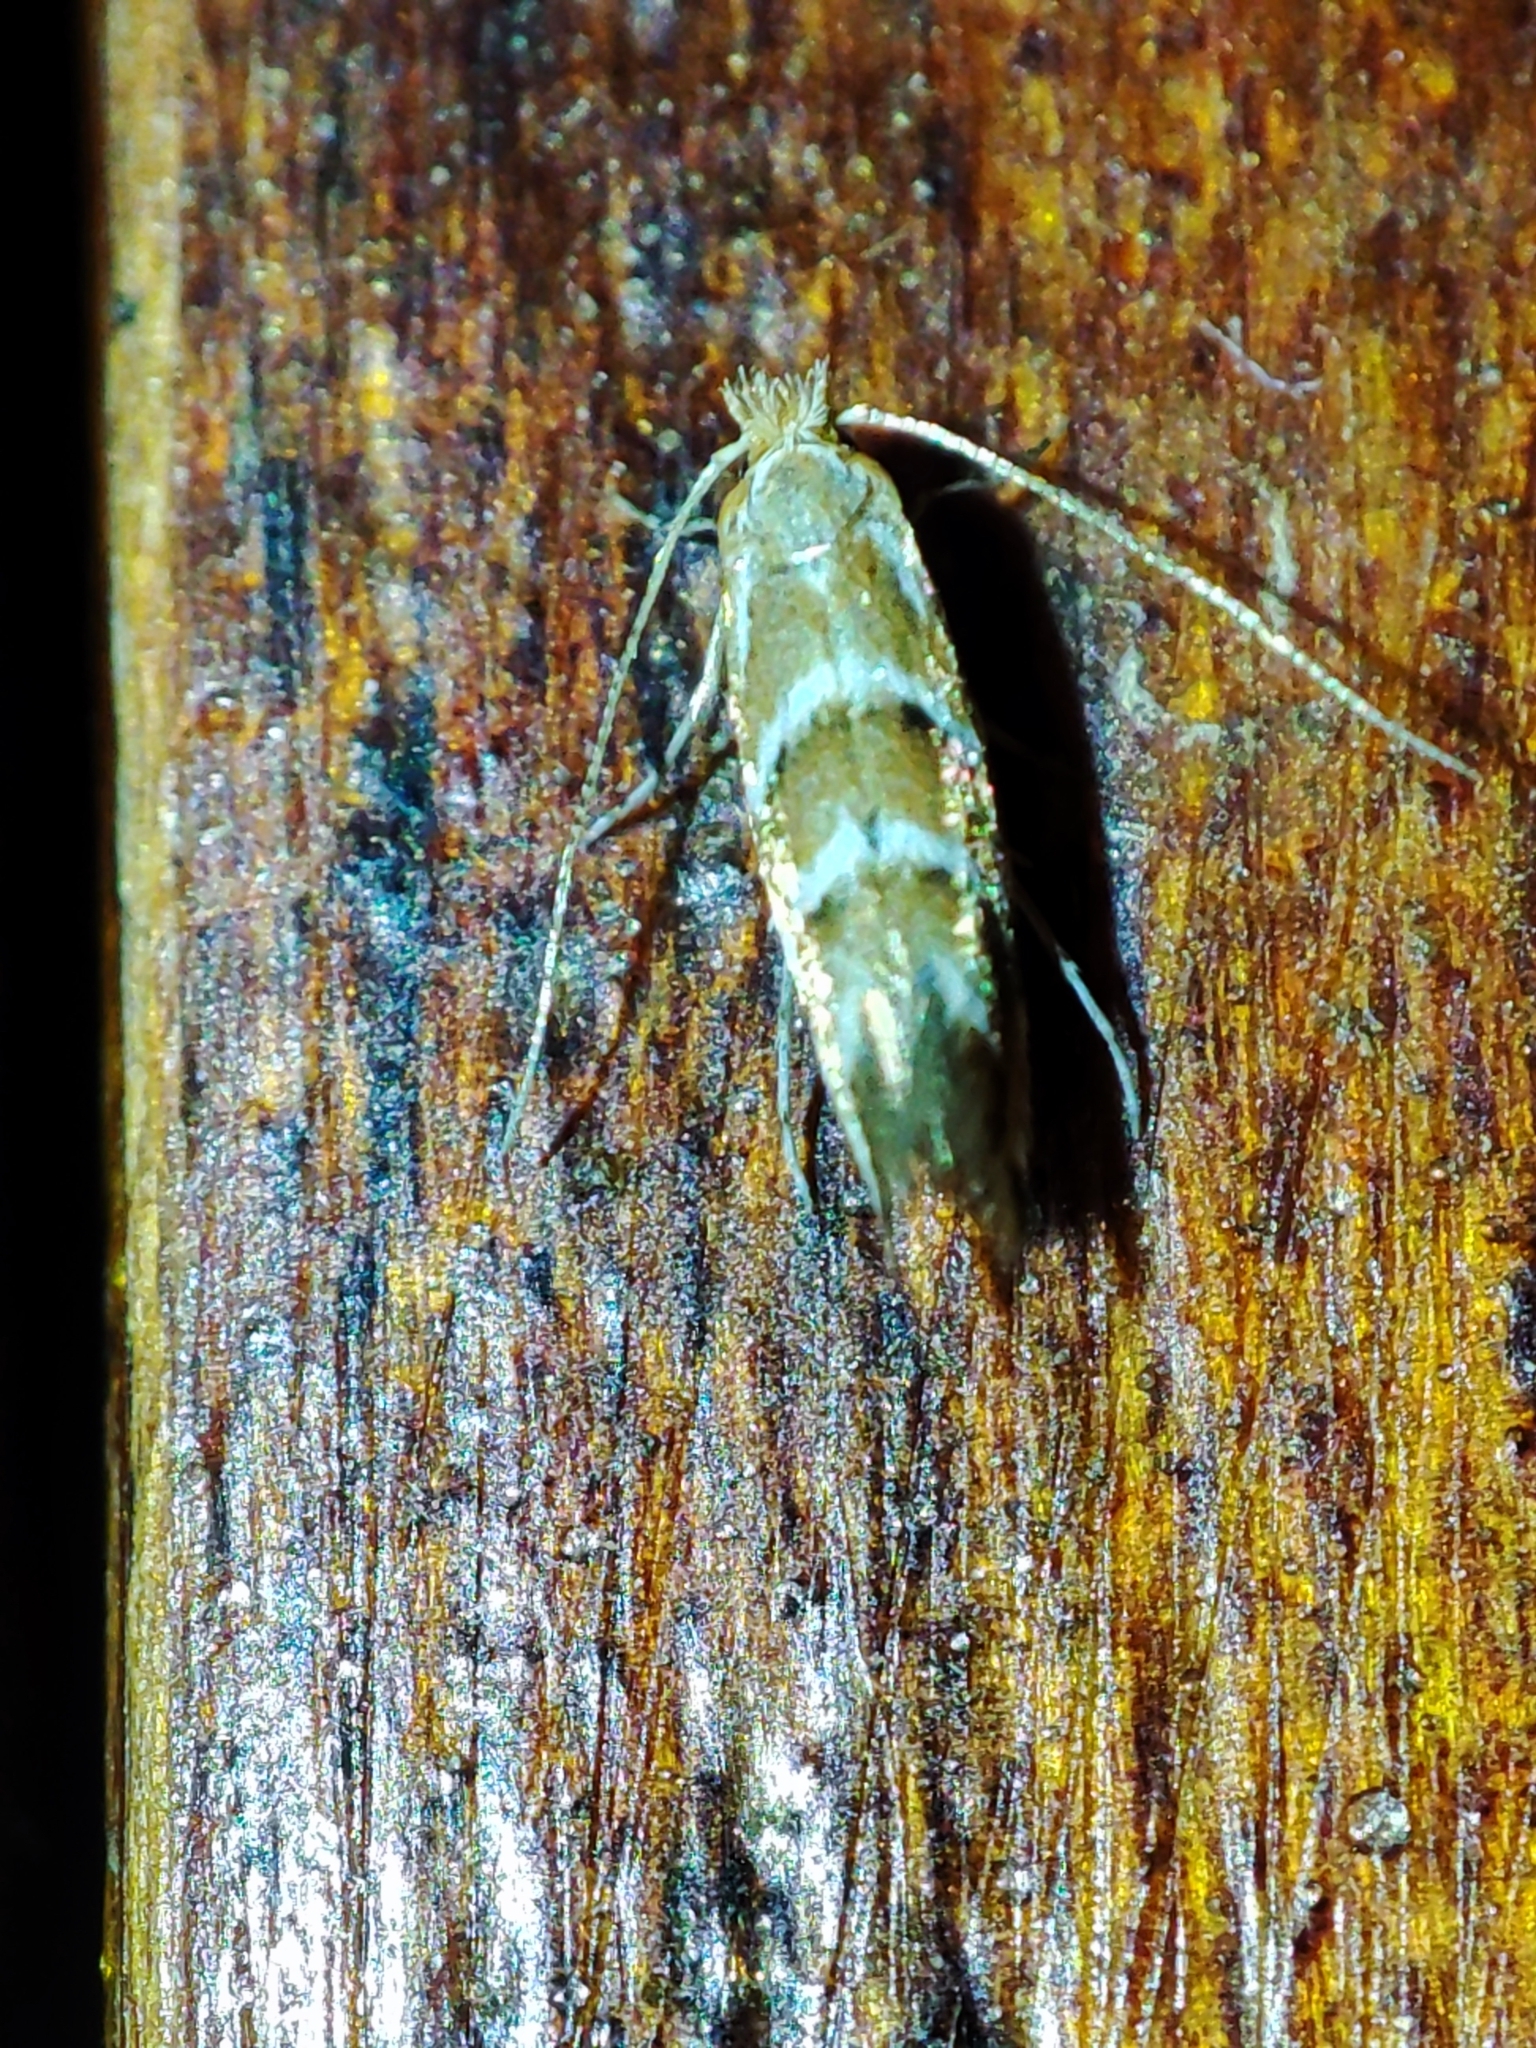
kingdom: Animalia
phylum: Arthropoda
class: Insecta
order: Lepidoptera
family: Gracillariidae
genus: Cameraria
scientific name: Cameraria ohridella
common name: Horse-chestnut leaf-miner
